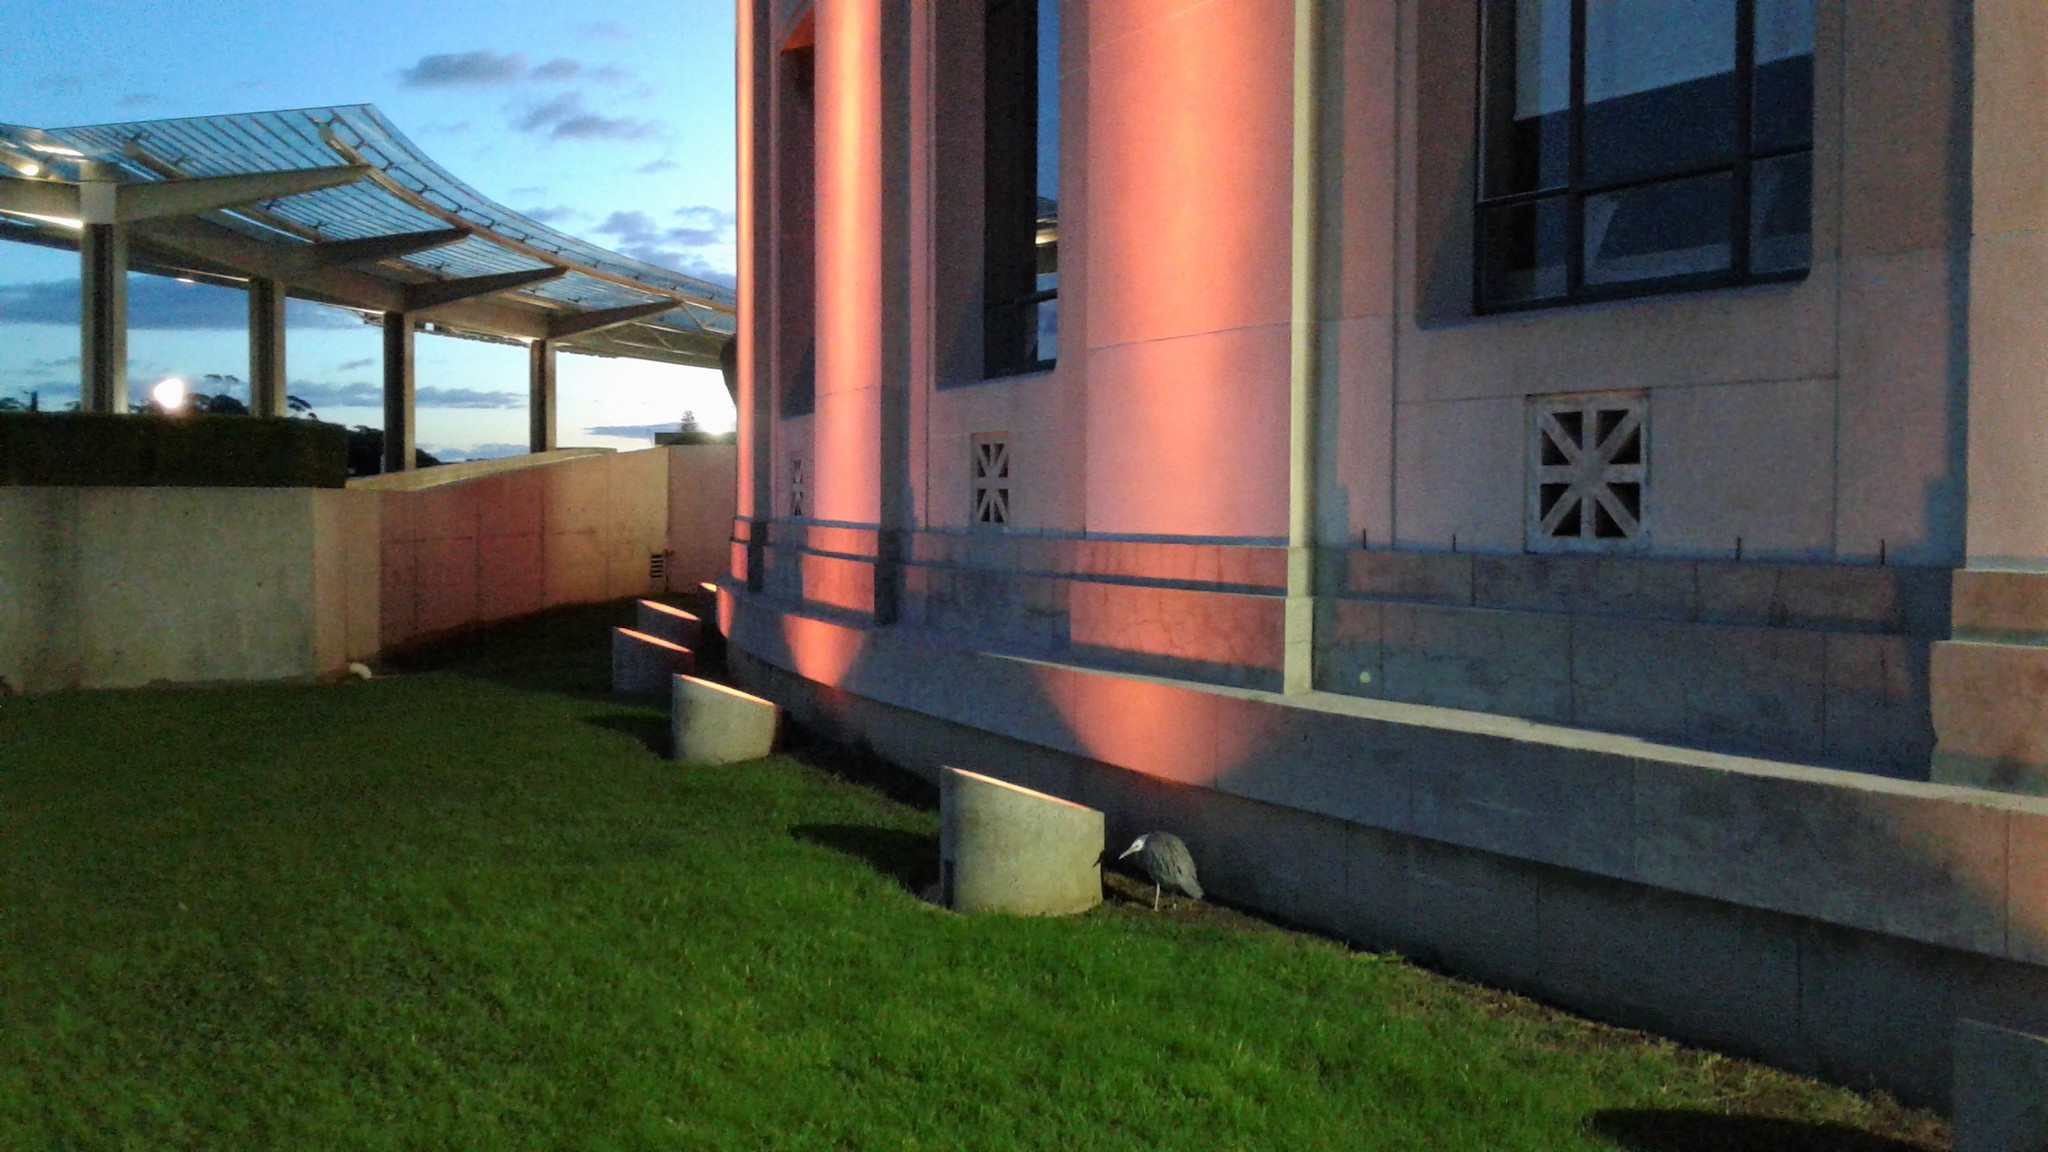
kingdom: Animalia
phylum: Chordata
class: Aves
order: Pelecaniformes
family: Ardeidae
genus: Egretta
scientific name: Egretta novaehollandiae
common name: White-faced heron
